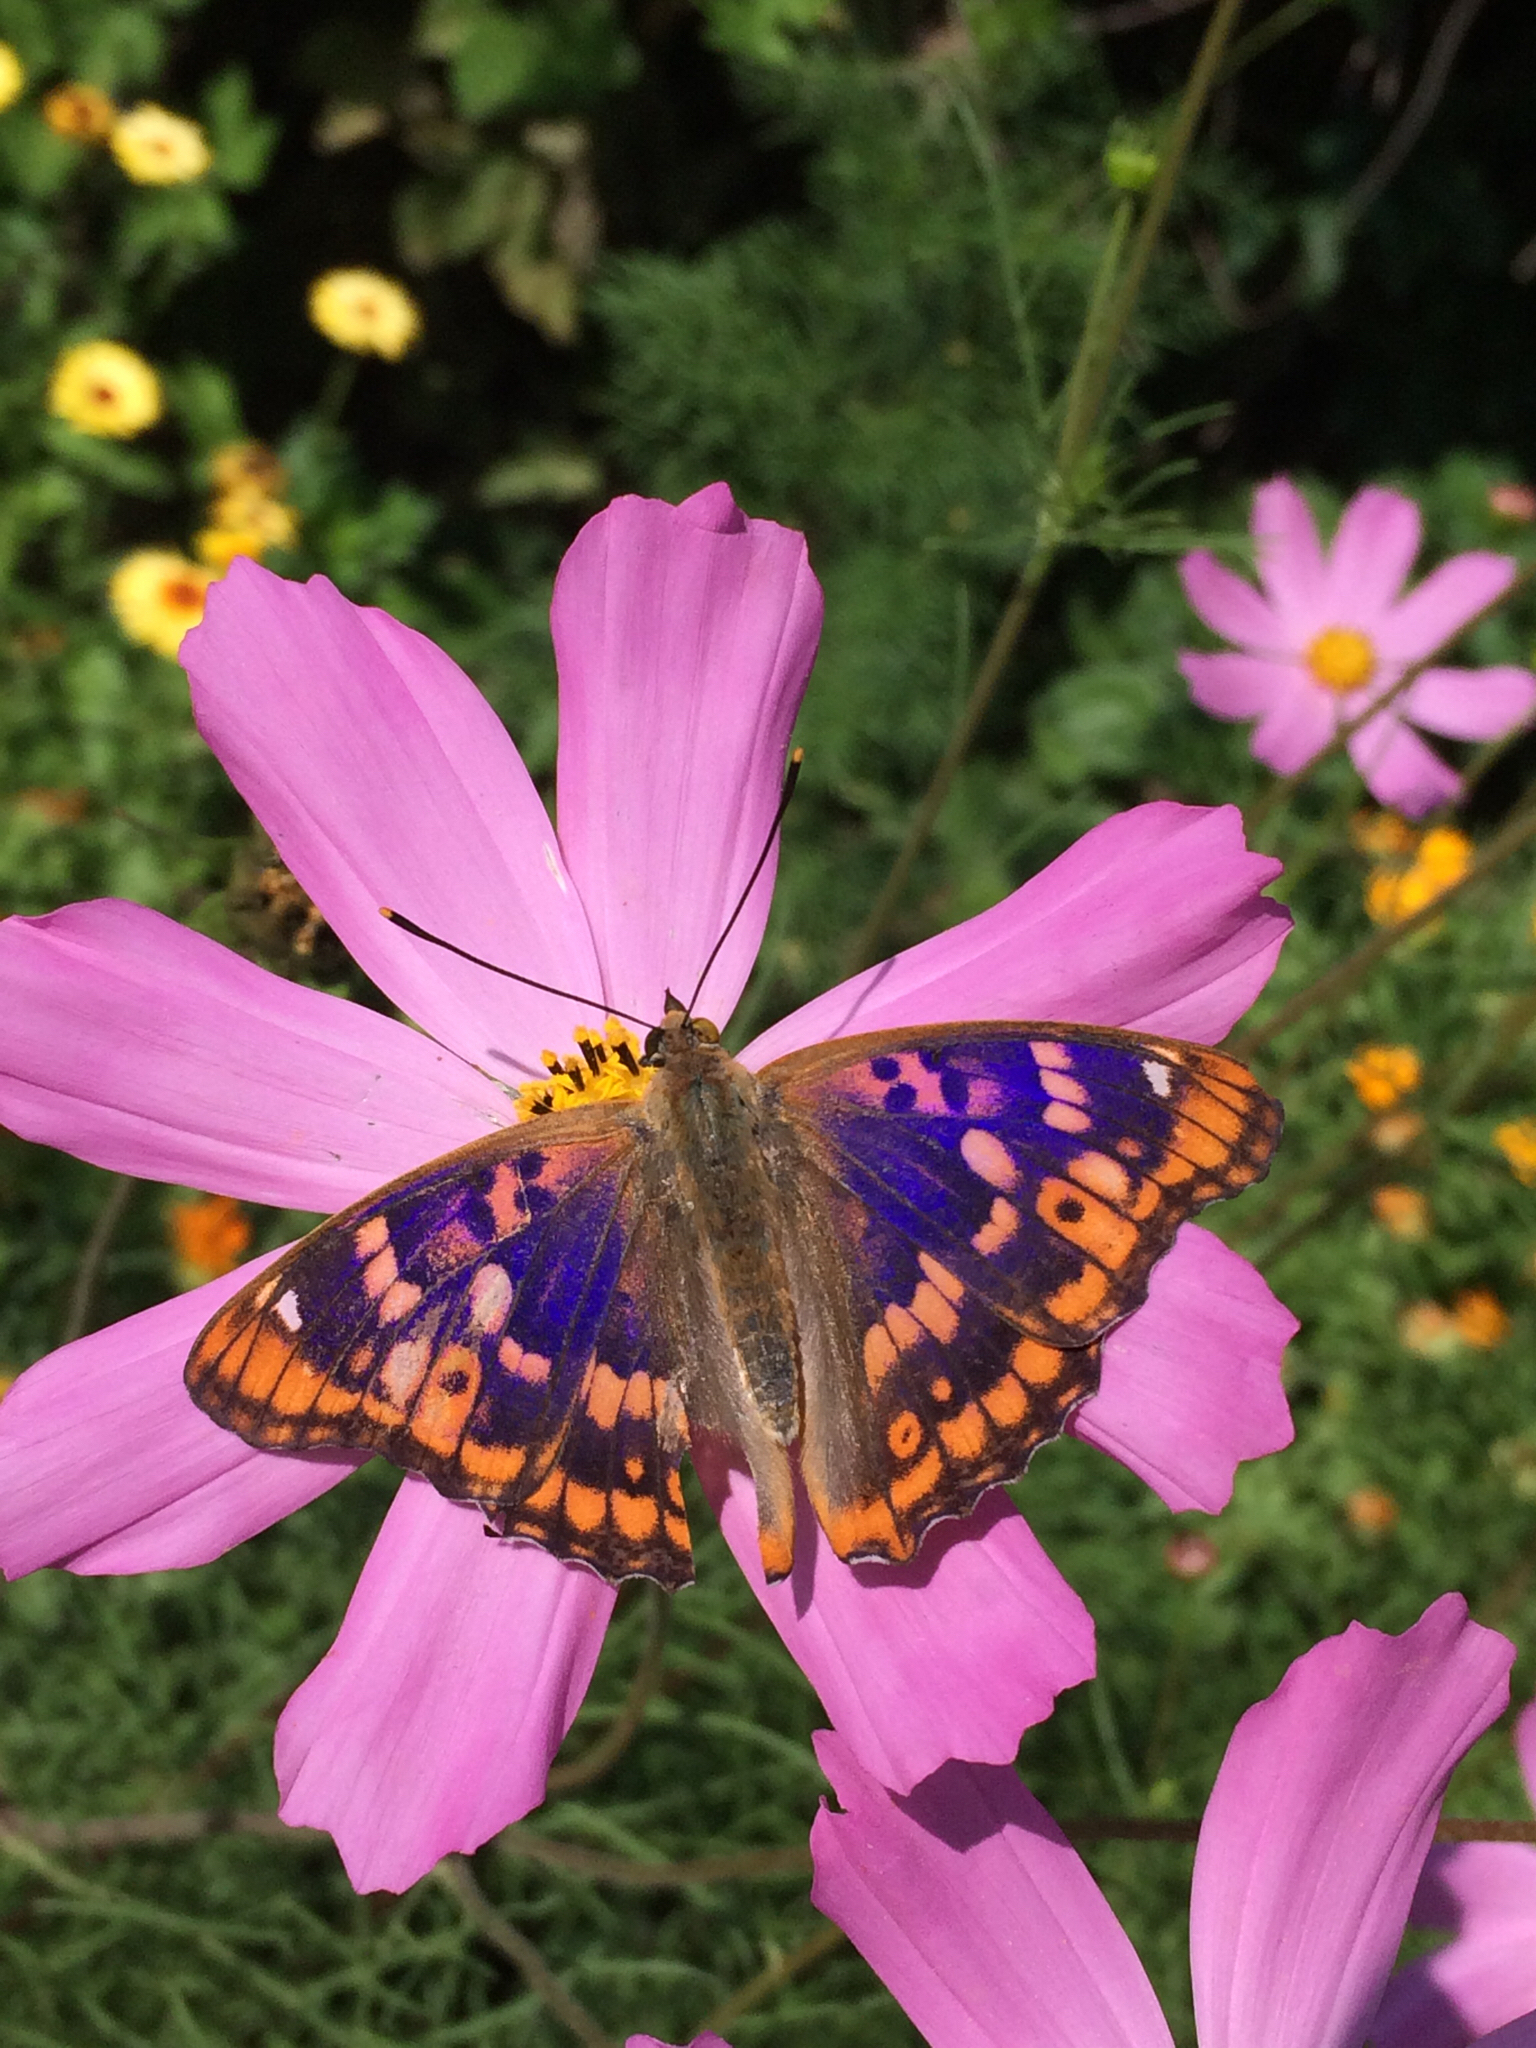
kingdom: Animalia
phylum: Arthropoda
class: Insecta
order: Lepidoptera
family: Nymphalidae
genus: Apatura
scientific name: Apatura ilia
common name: Lesser purple emperor
